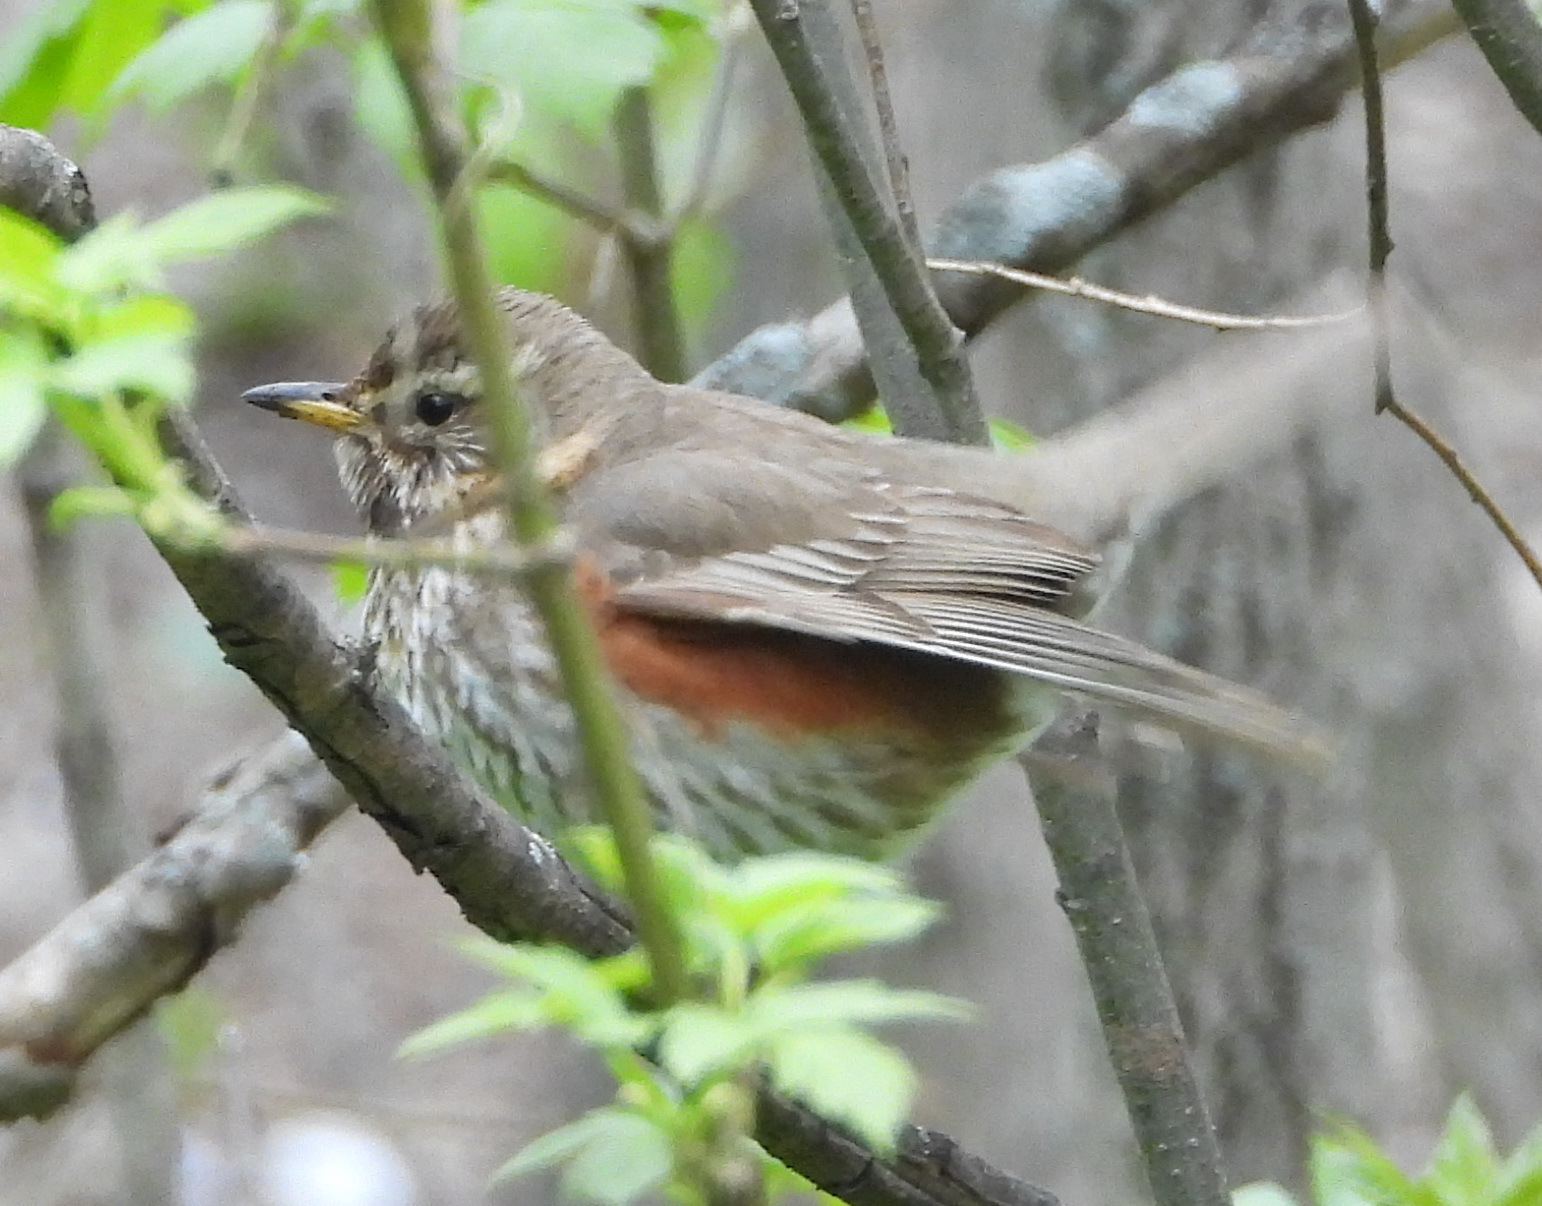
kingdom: Animalia
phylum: Chordata
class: Aves
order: Passeriformes
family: Turdidae
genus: Turdus
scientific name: Turdus iliacus
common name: Redwing
